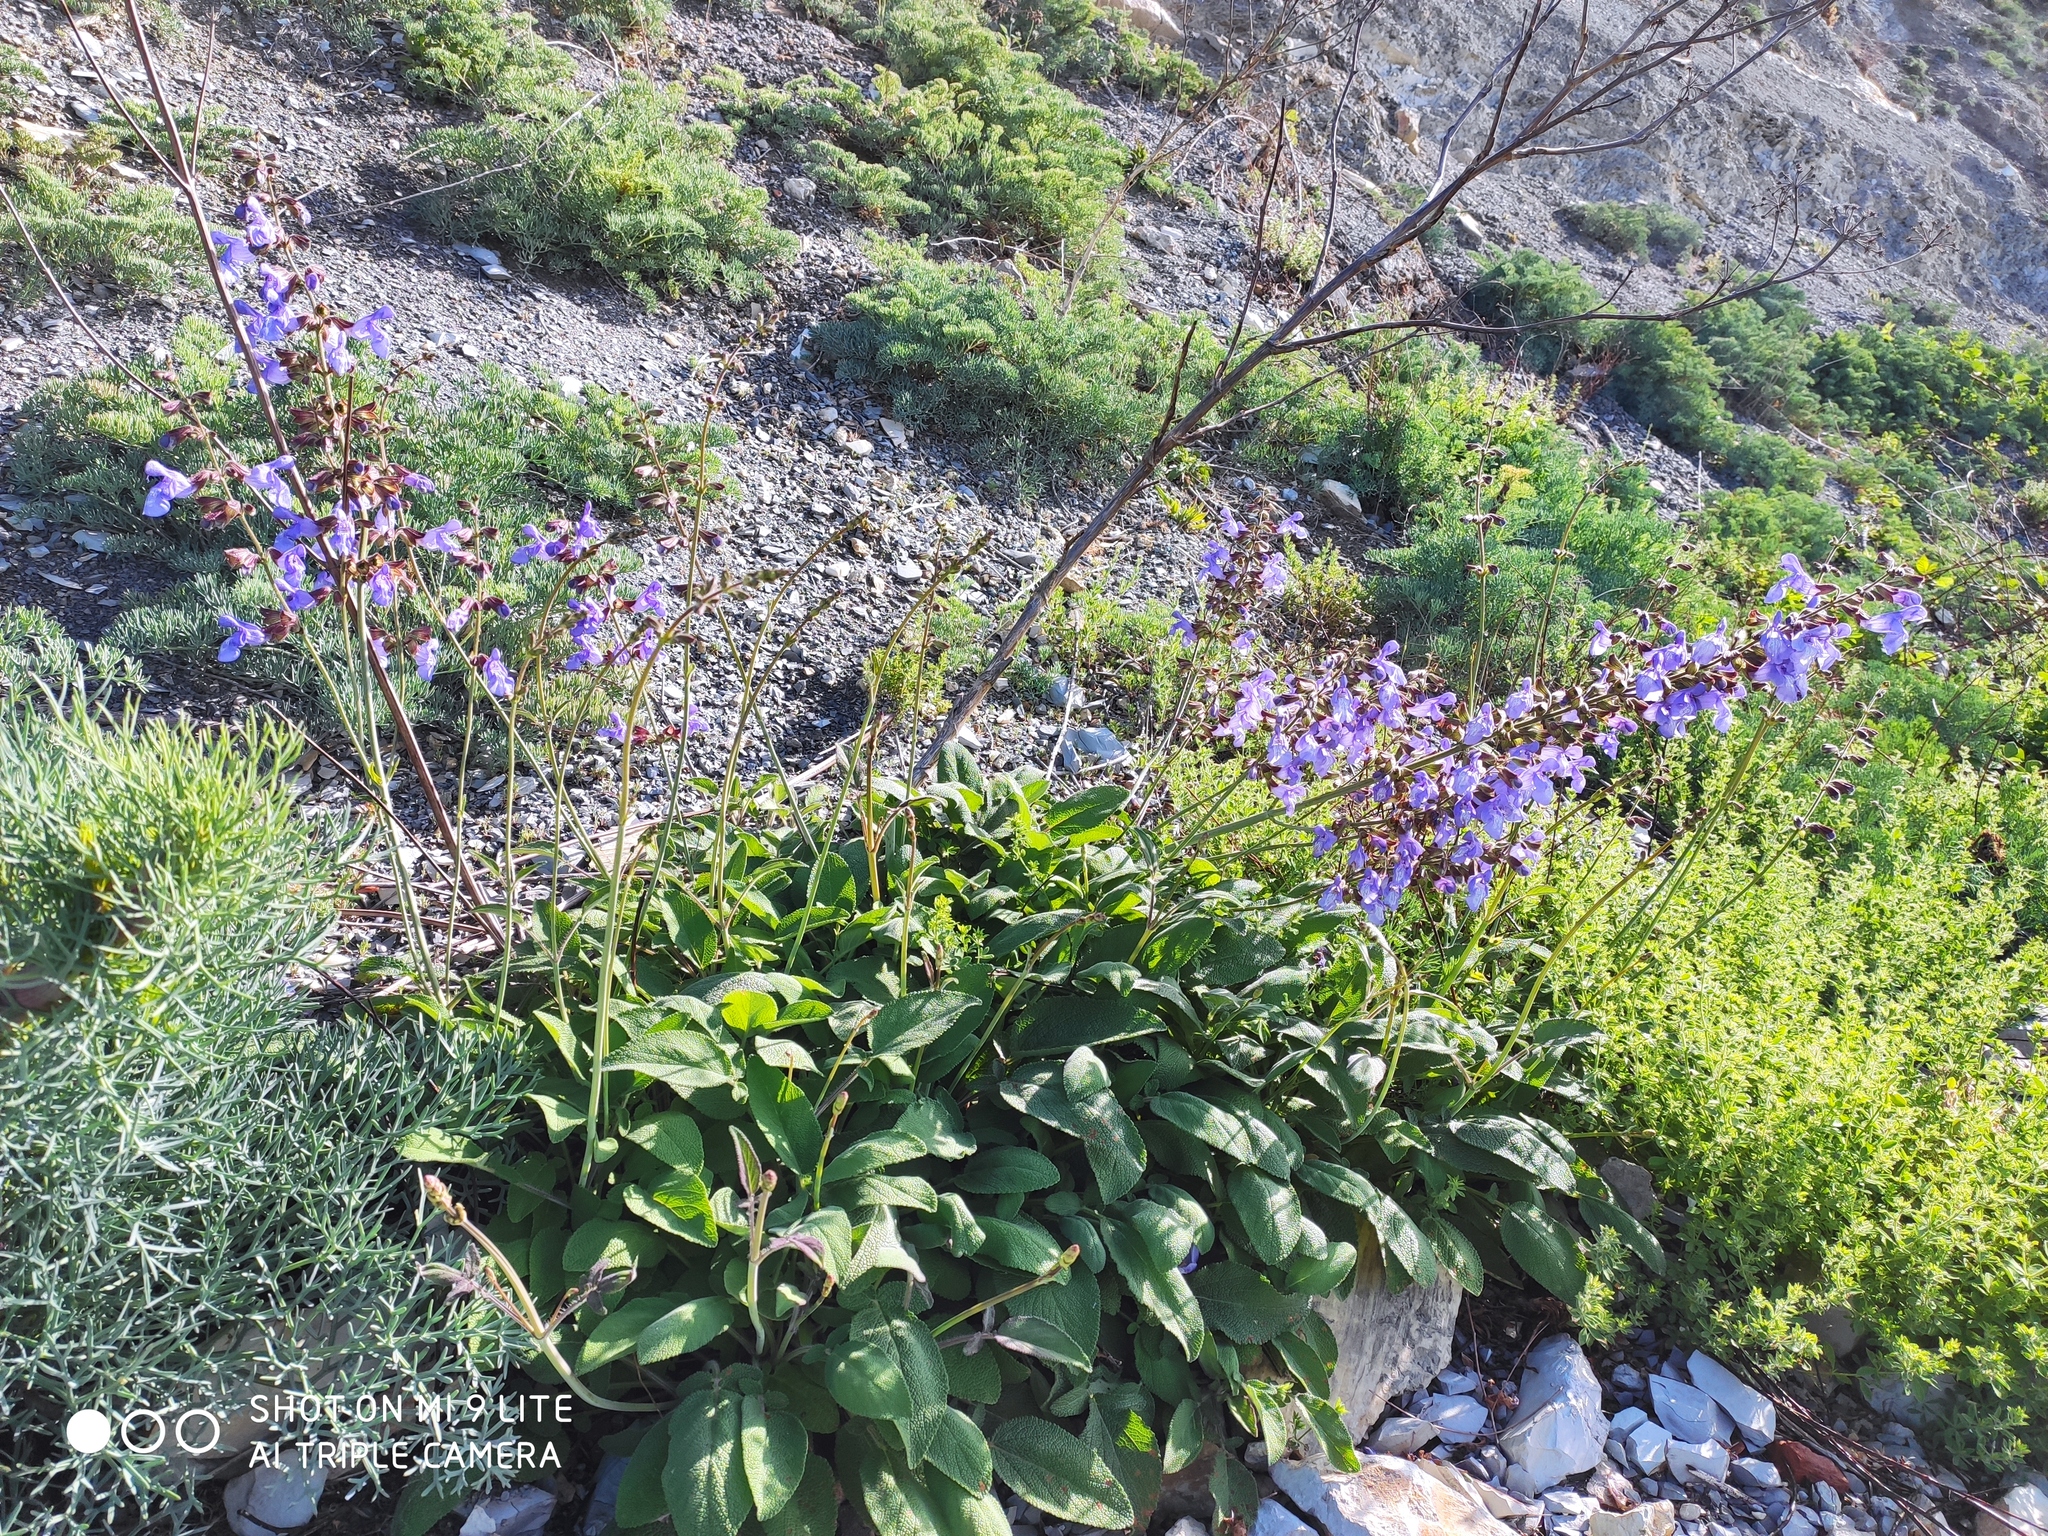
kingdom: Plantae
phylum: Tracheophyta
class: Magnoliopsida
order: Lamiales
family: Lamiaceae
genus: Salvia
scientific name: Salvia ringens
